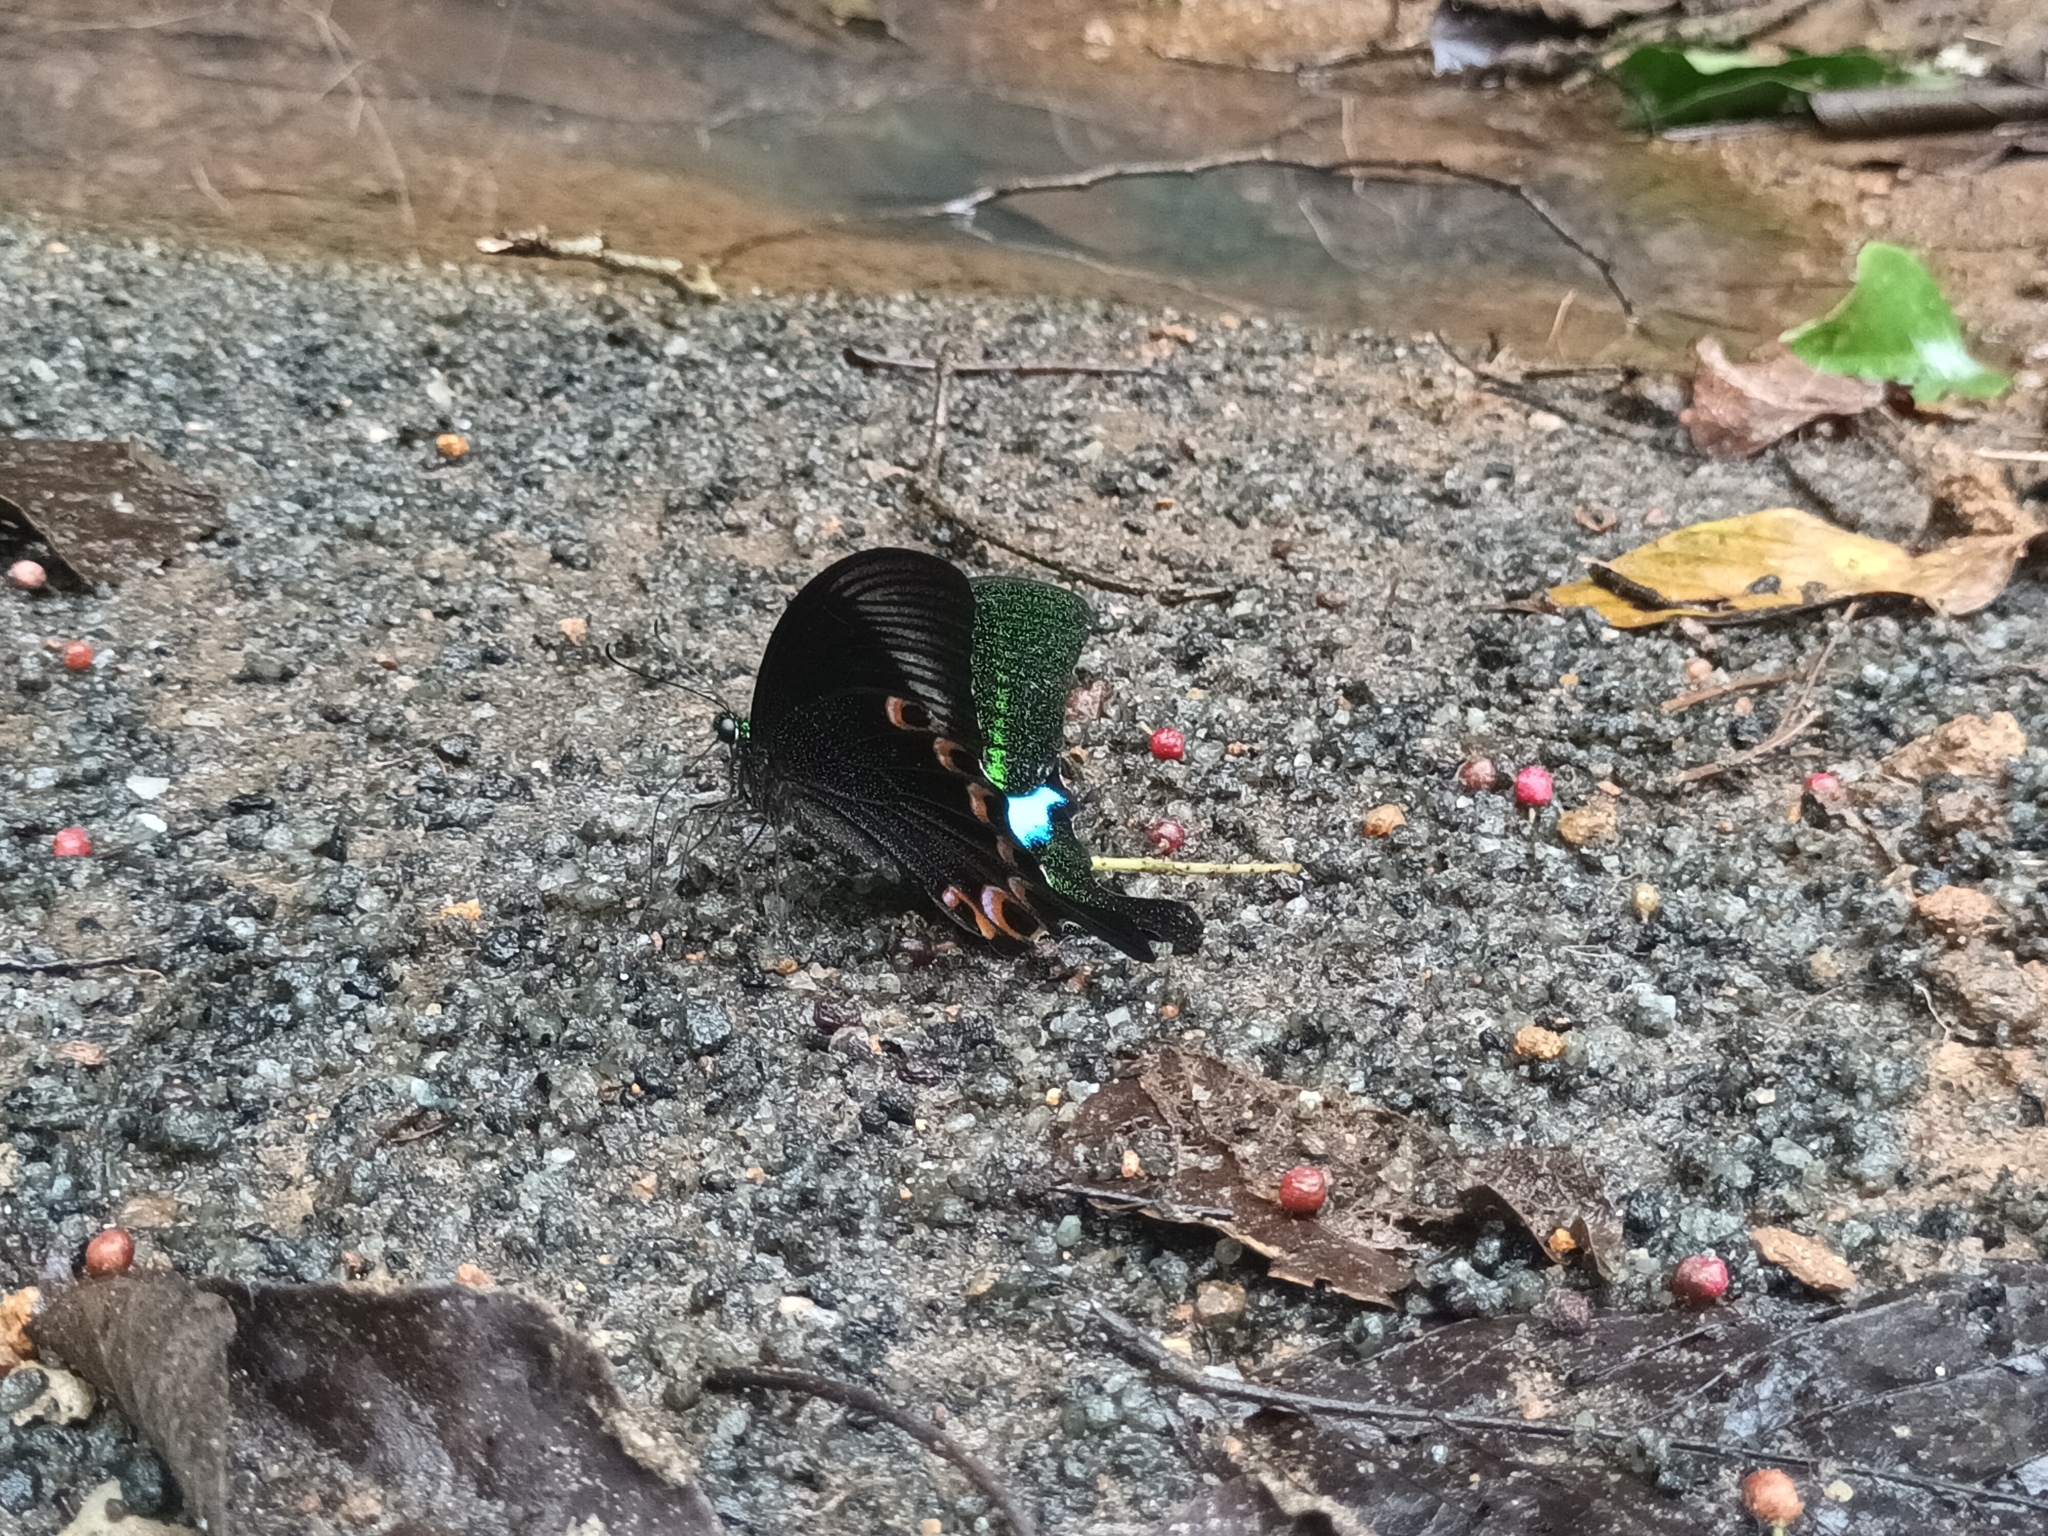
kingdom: Animalia
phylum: Arthropoda
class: Insecta
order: Lepidoptera
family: Papilionidae
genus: Papilio
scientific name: Papilio paris
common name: Paris peacock
